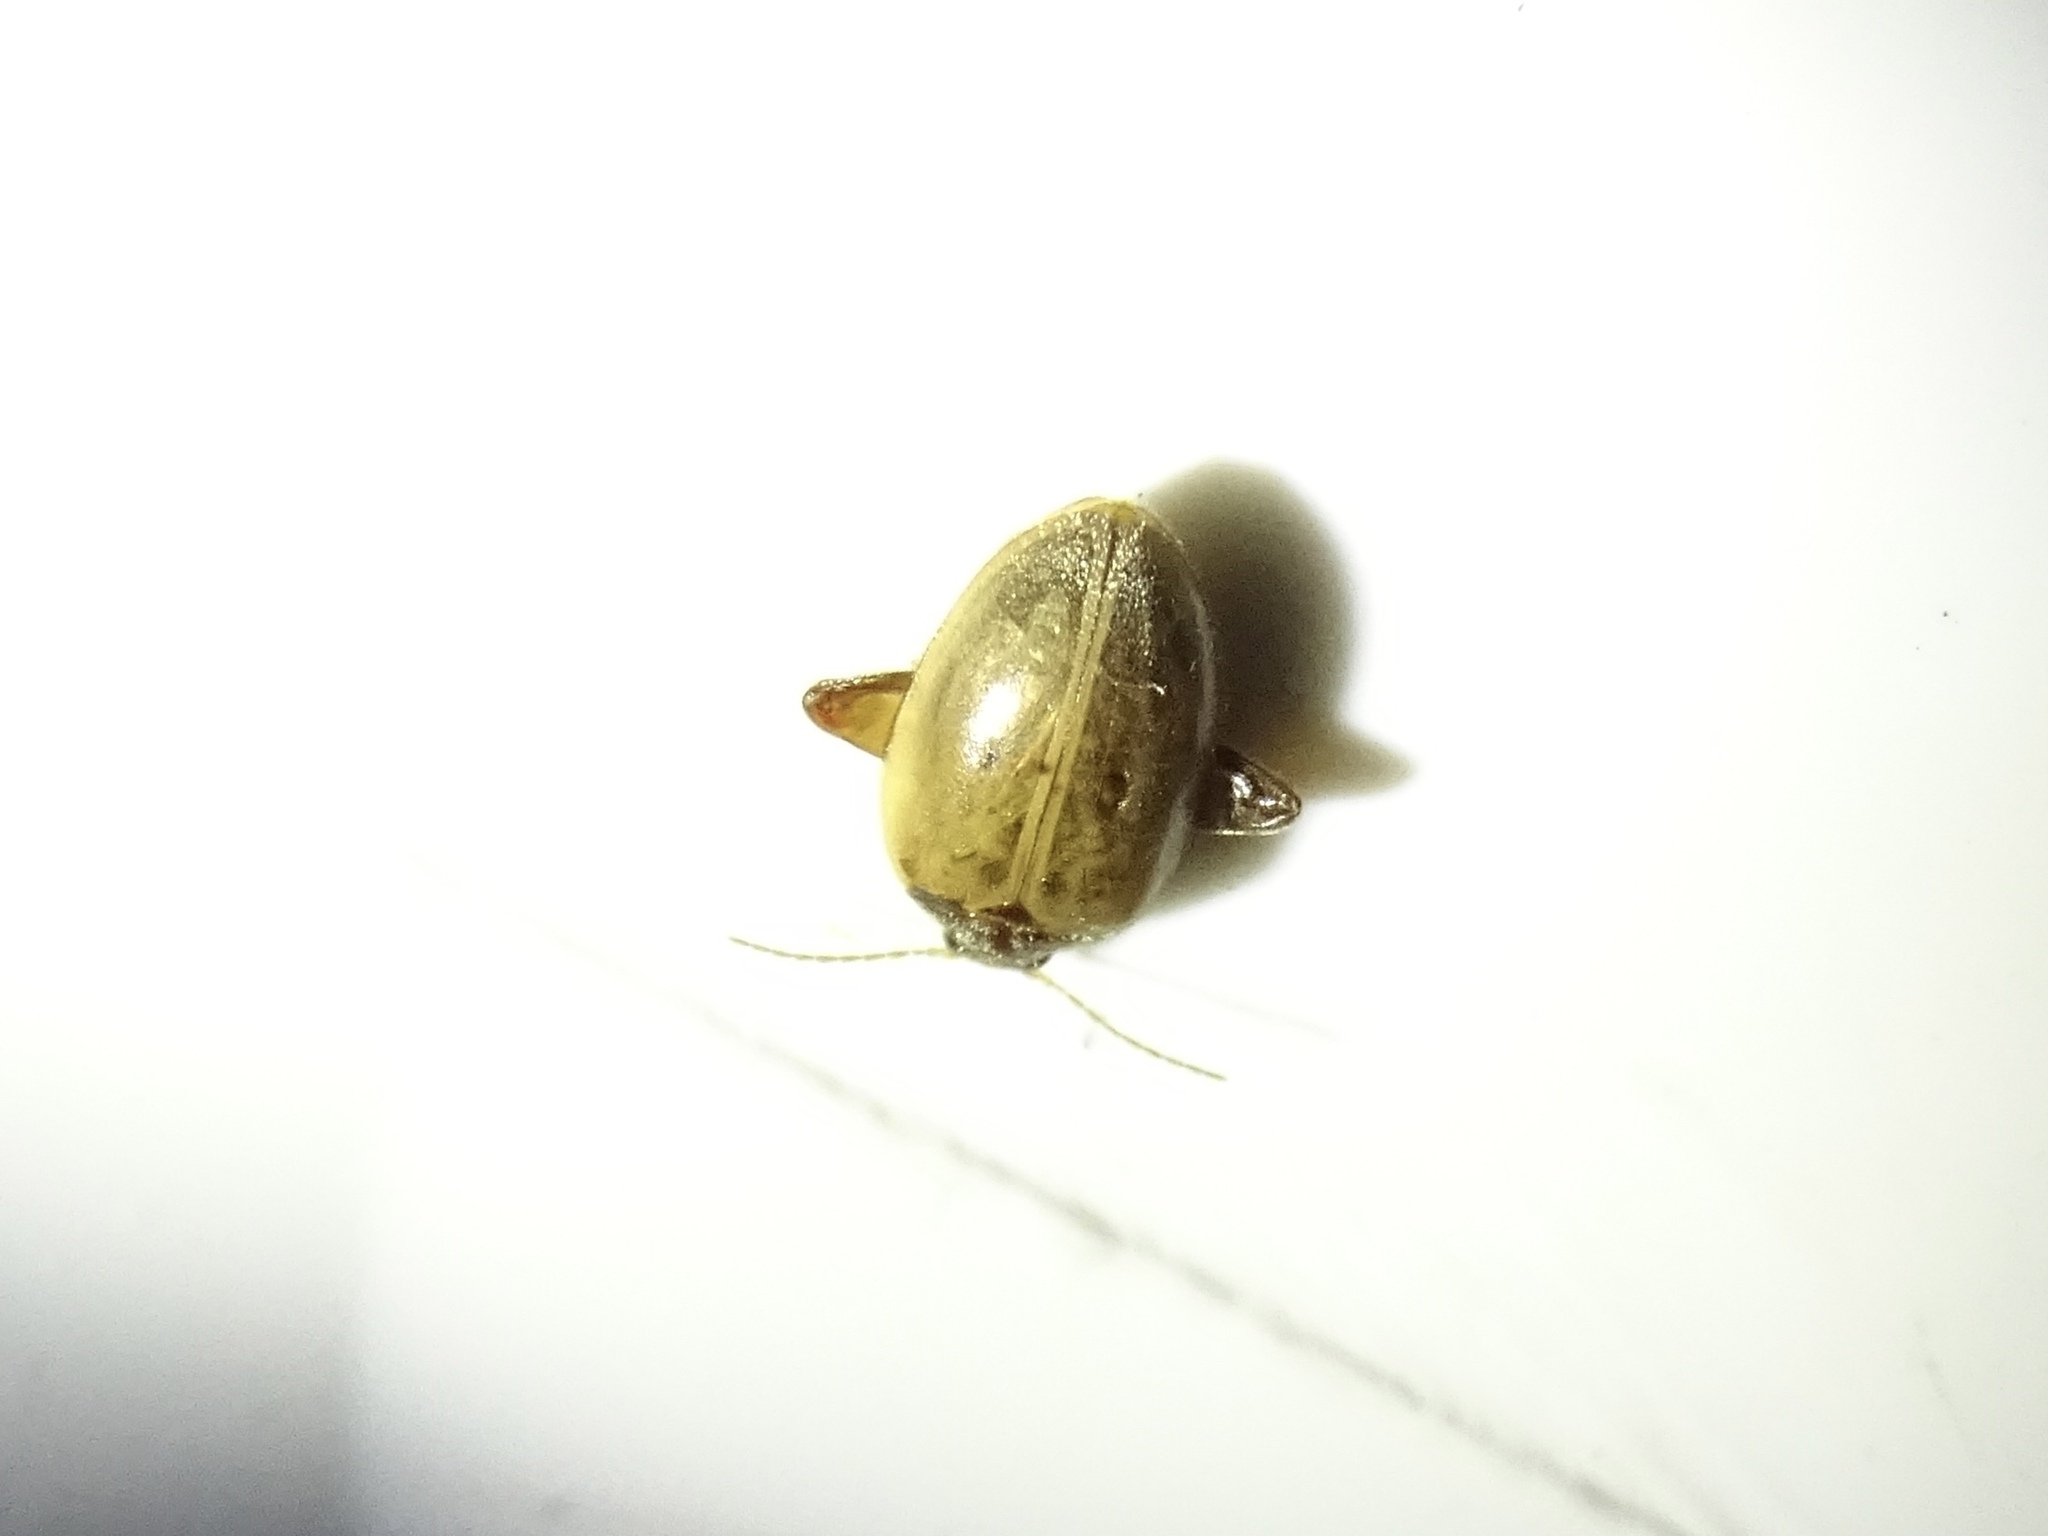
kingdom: Animalia
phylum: Arthropoda
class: Insecta
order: Coleoptera
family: Scirtidae
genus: Ora
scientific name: Ora discoidea
